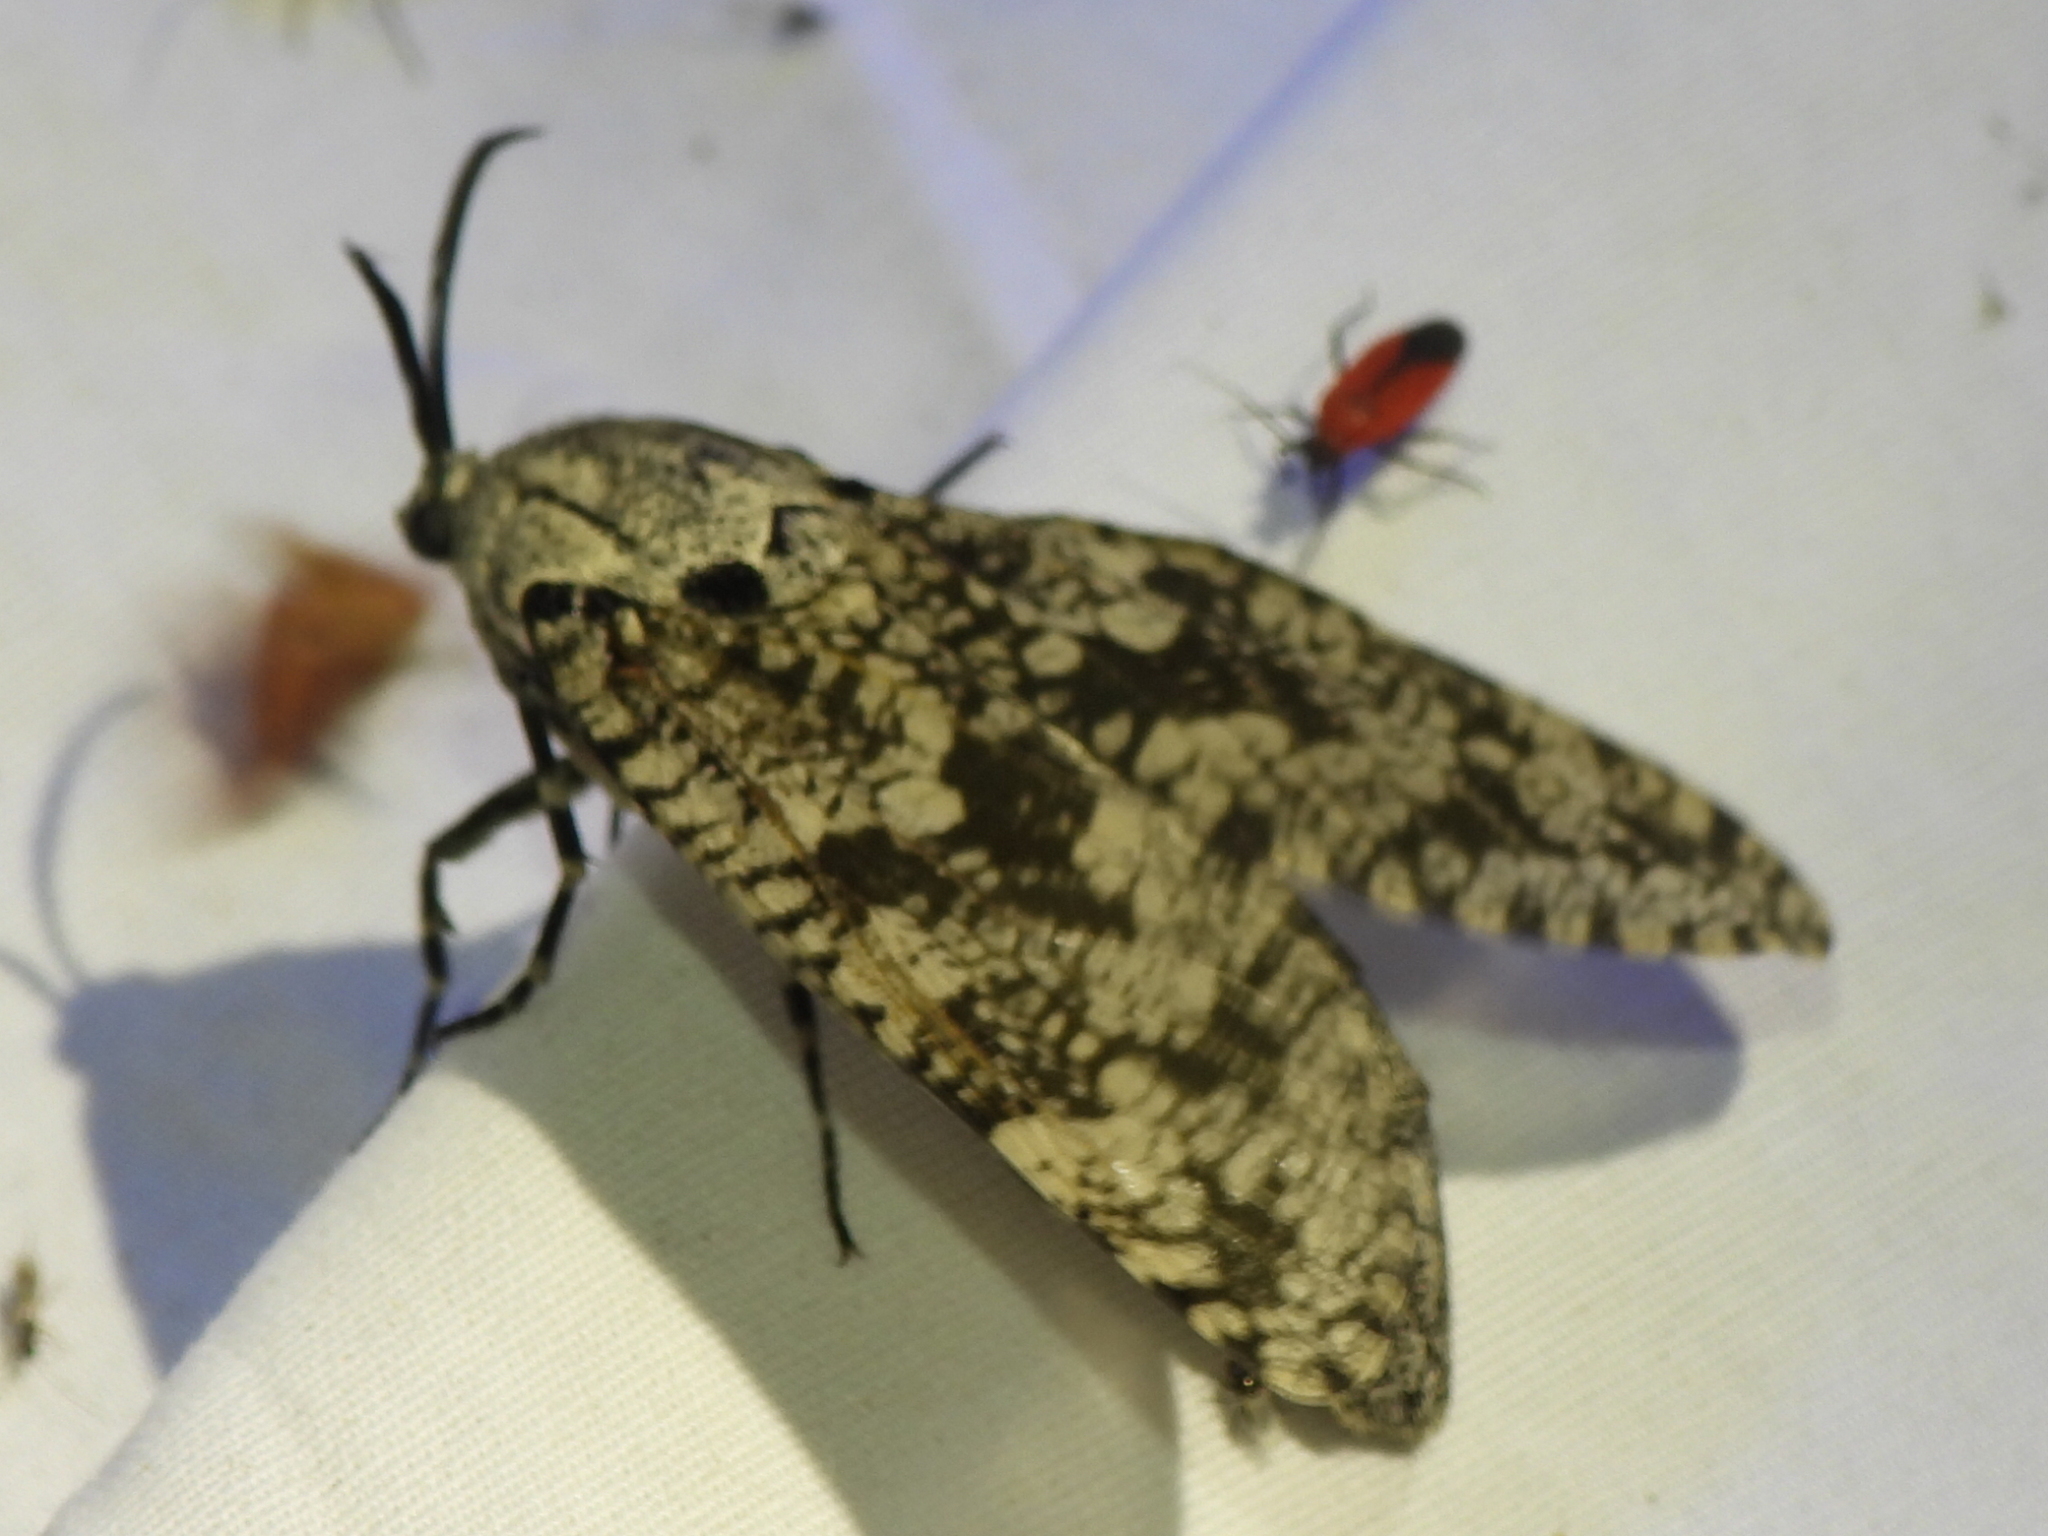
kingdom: Animalia
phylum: Arthropoda
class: Insecta
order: Lepidoptera
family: Cossidae
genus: Prionoxystus
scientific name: Prionoxystus robiniae
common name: Carpenterworm
